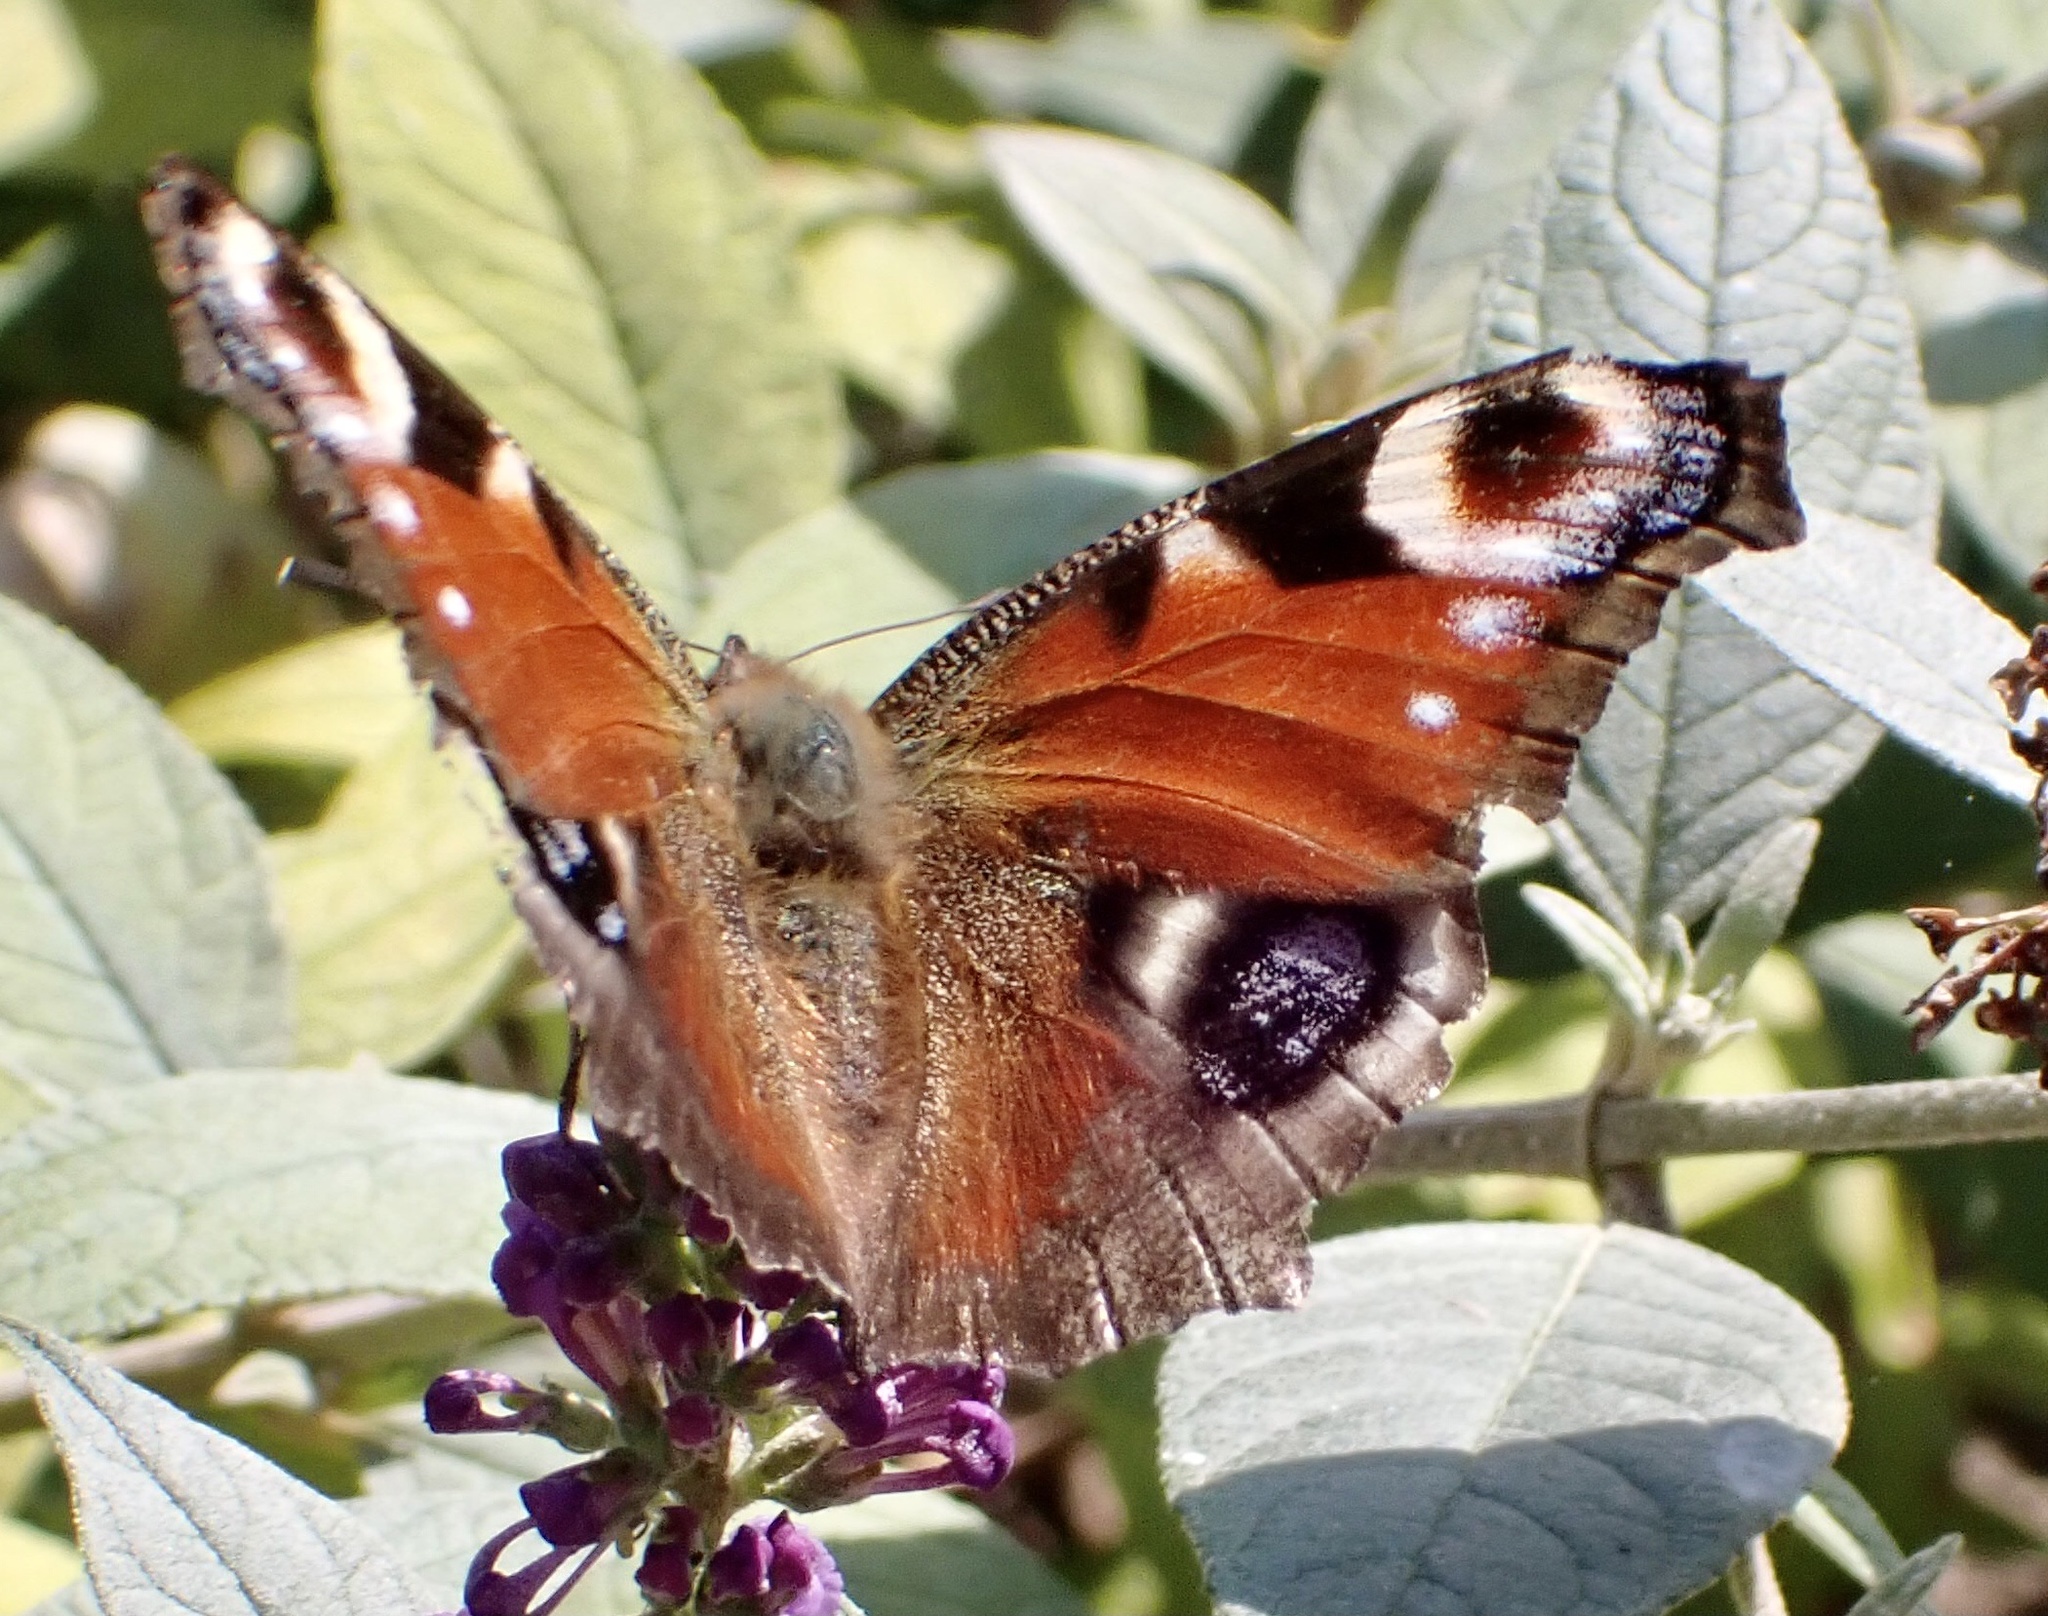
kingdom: Animalia
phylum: Arthropoda
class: Insecta
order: Lepidoptera
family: Nymphalidae
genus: Aglais
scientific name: Aglais io
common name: Peacock
